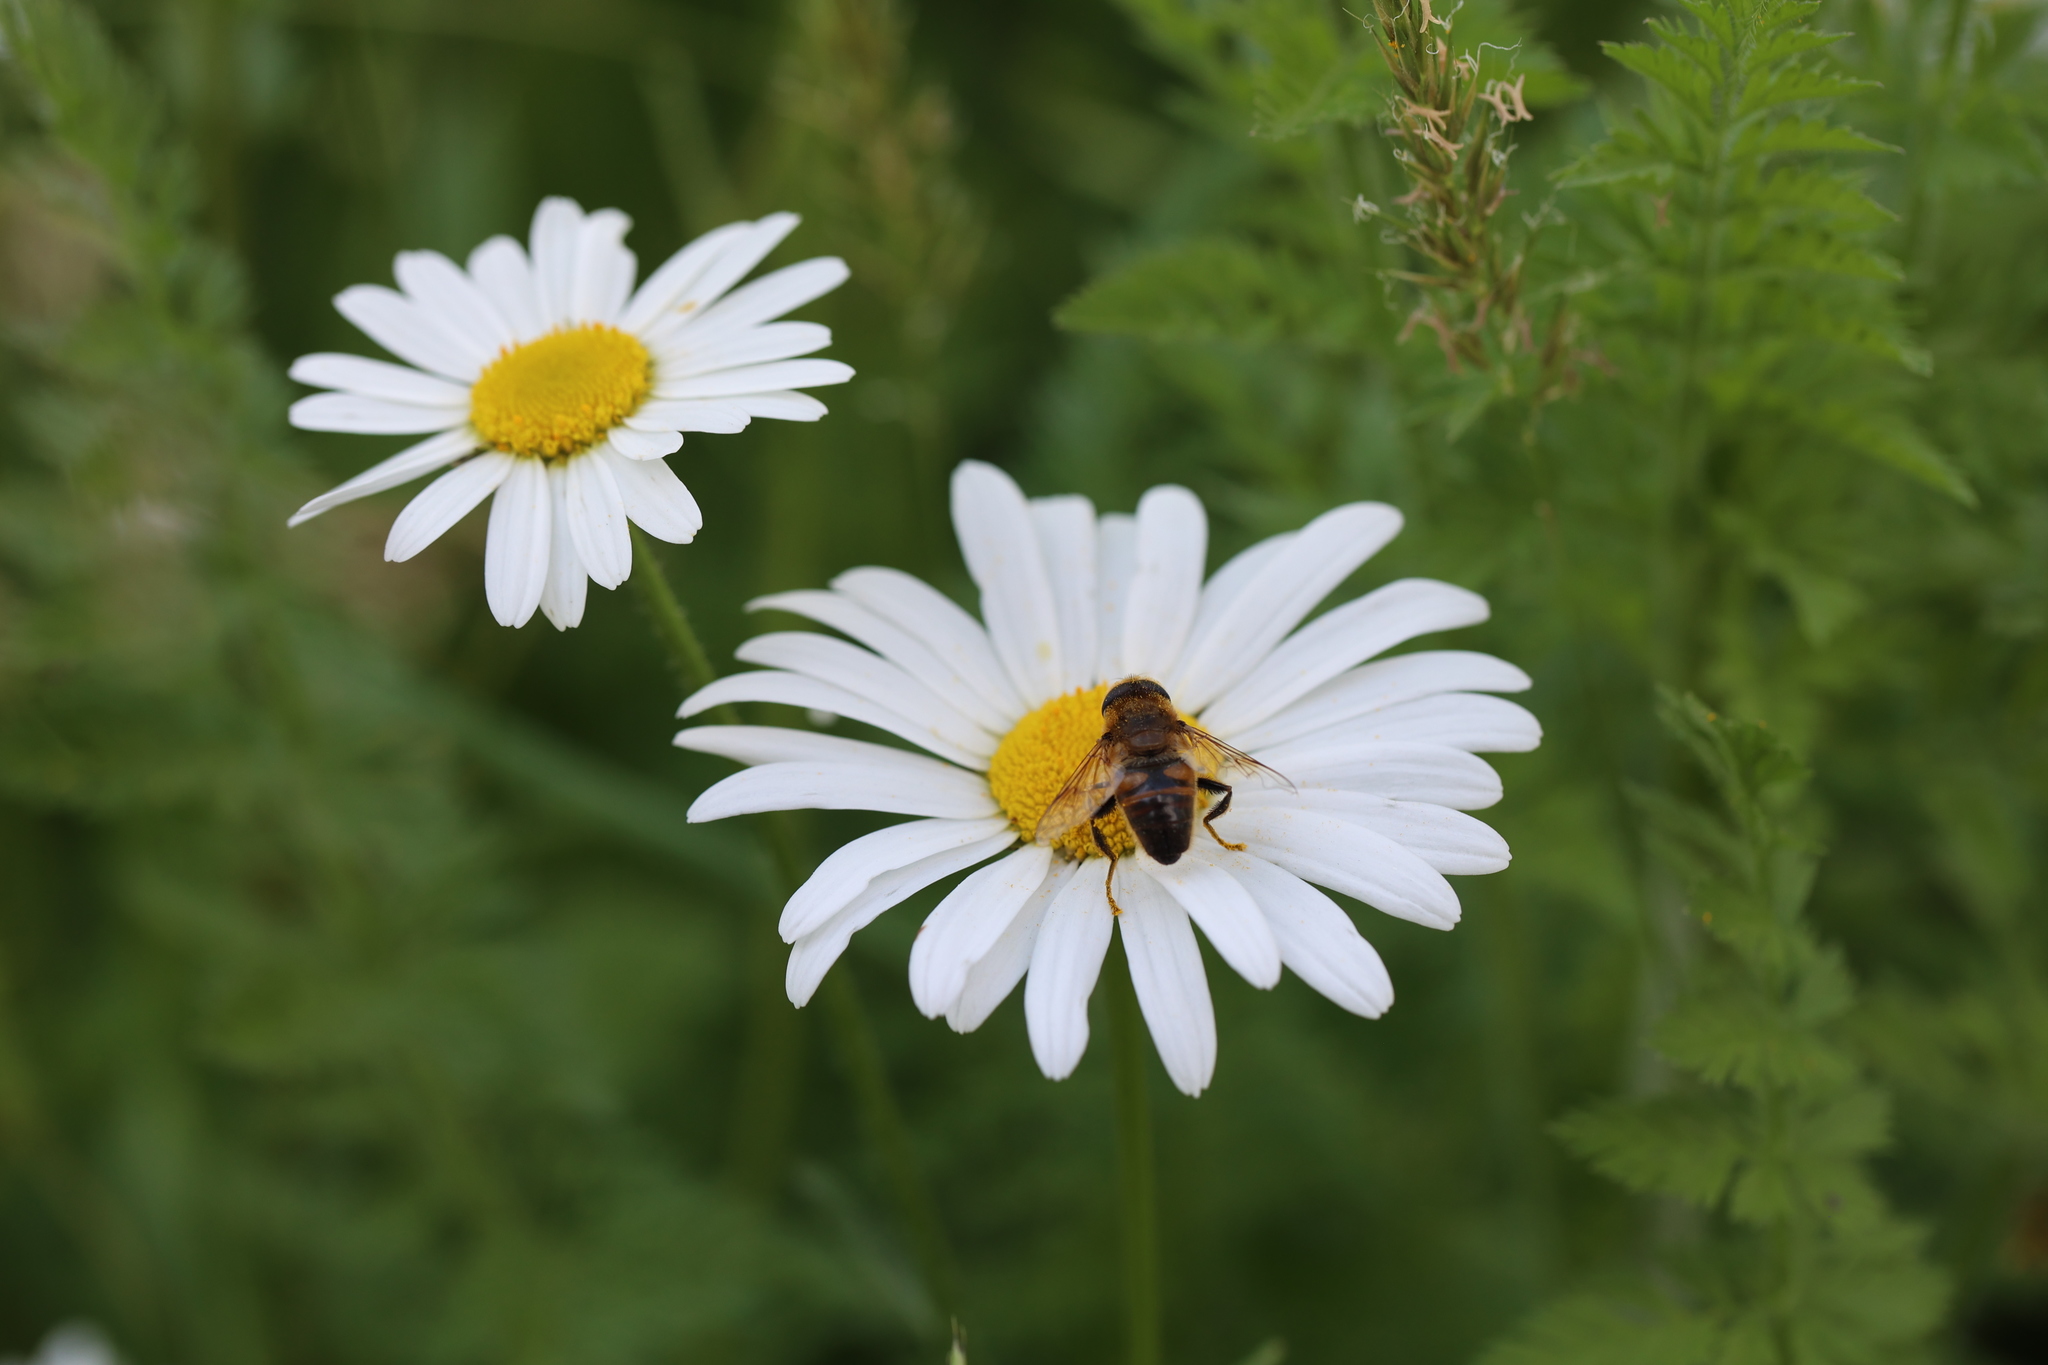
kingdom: Animalia
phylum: Arthropoda
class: Insecta
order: Diptera
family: Syrphidae
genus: Eristalis
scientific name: Eristalis tenax
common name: Drone fly
